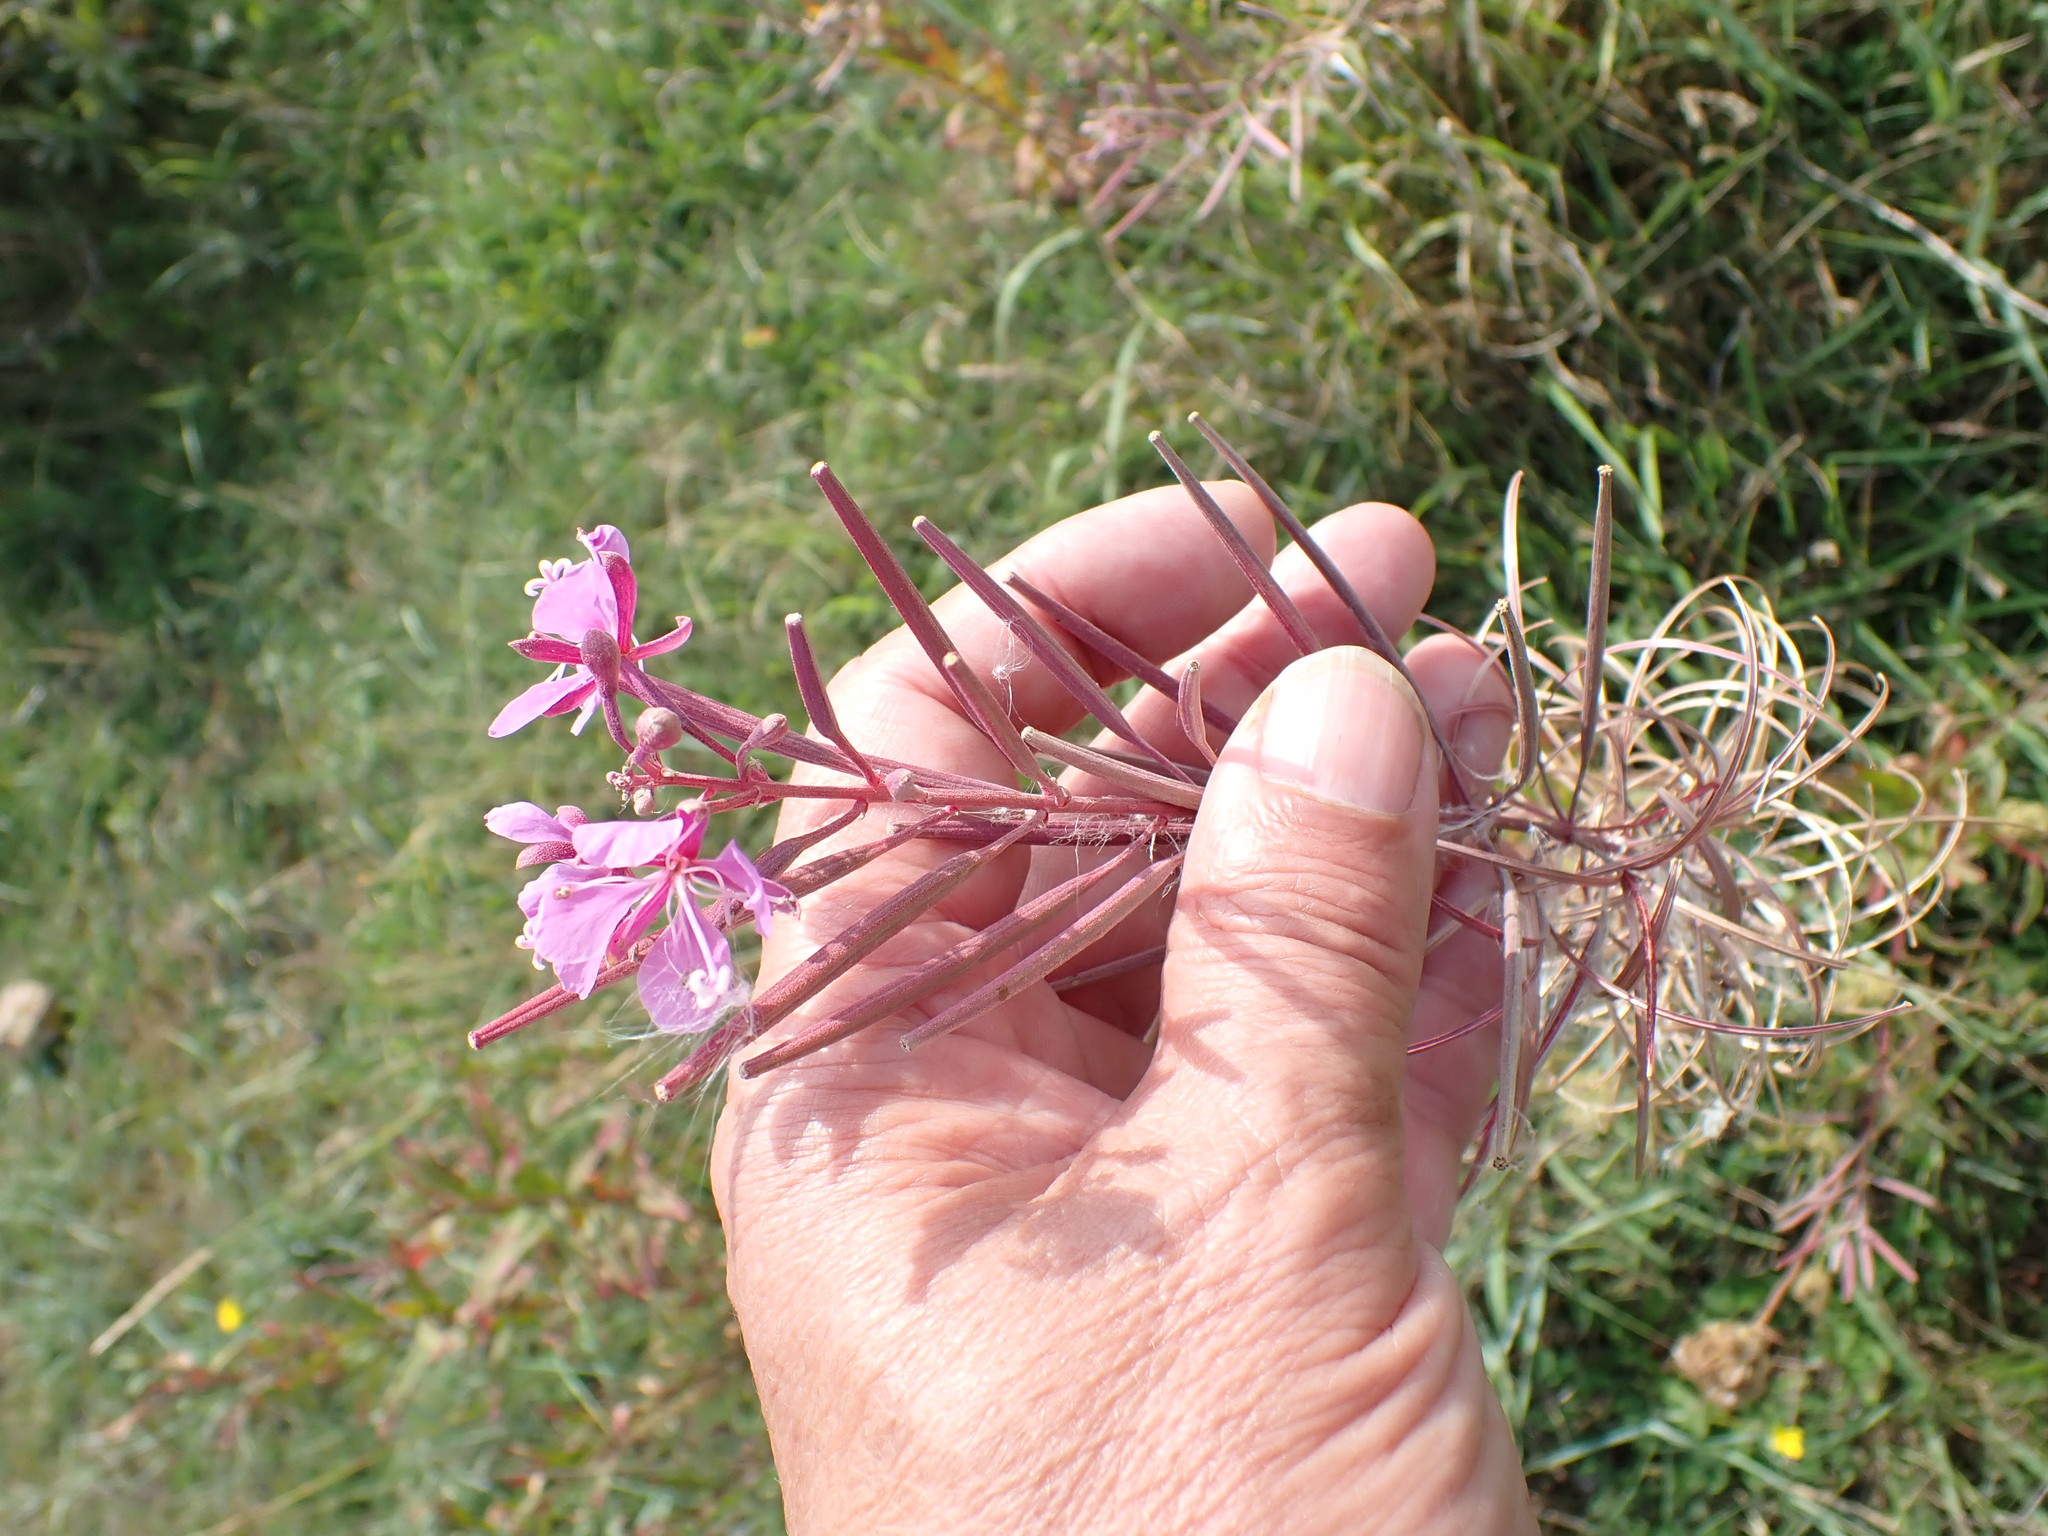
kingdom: Plantae
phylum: Tracheophyta
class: Magnoliopsida
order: Myrtales
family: Onagraceae
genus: Chamaenerion
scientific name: Chamaenerion angustifolium
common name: Fireweed
